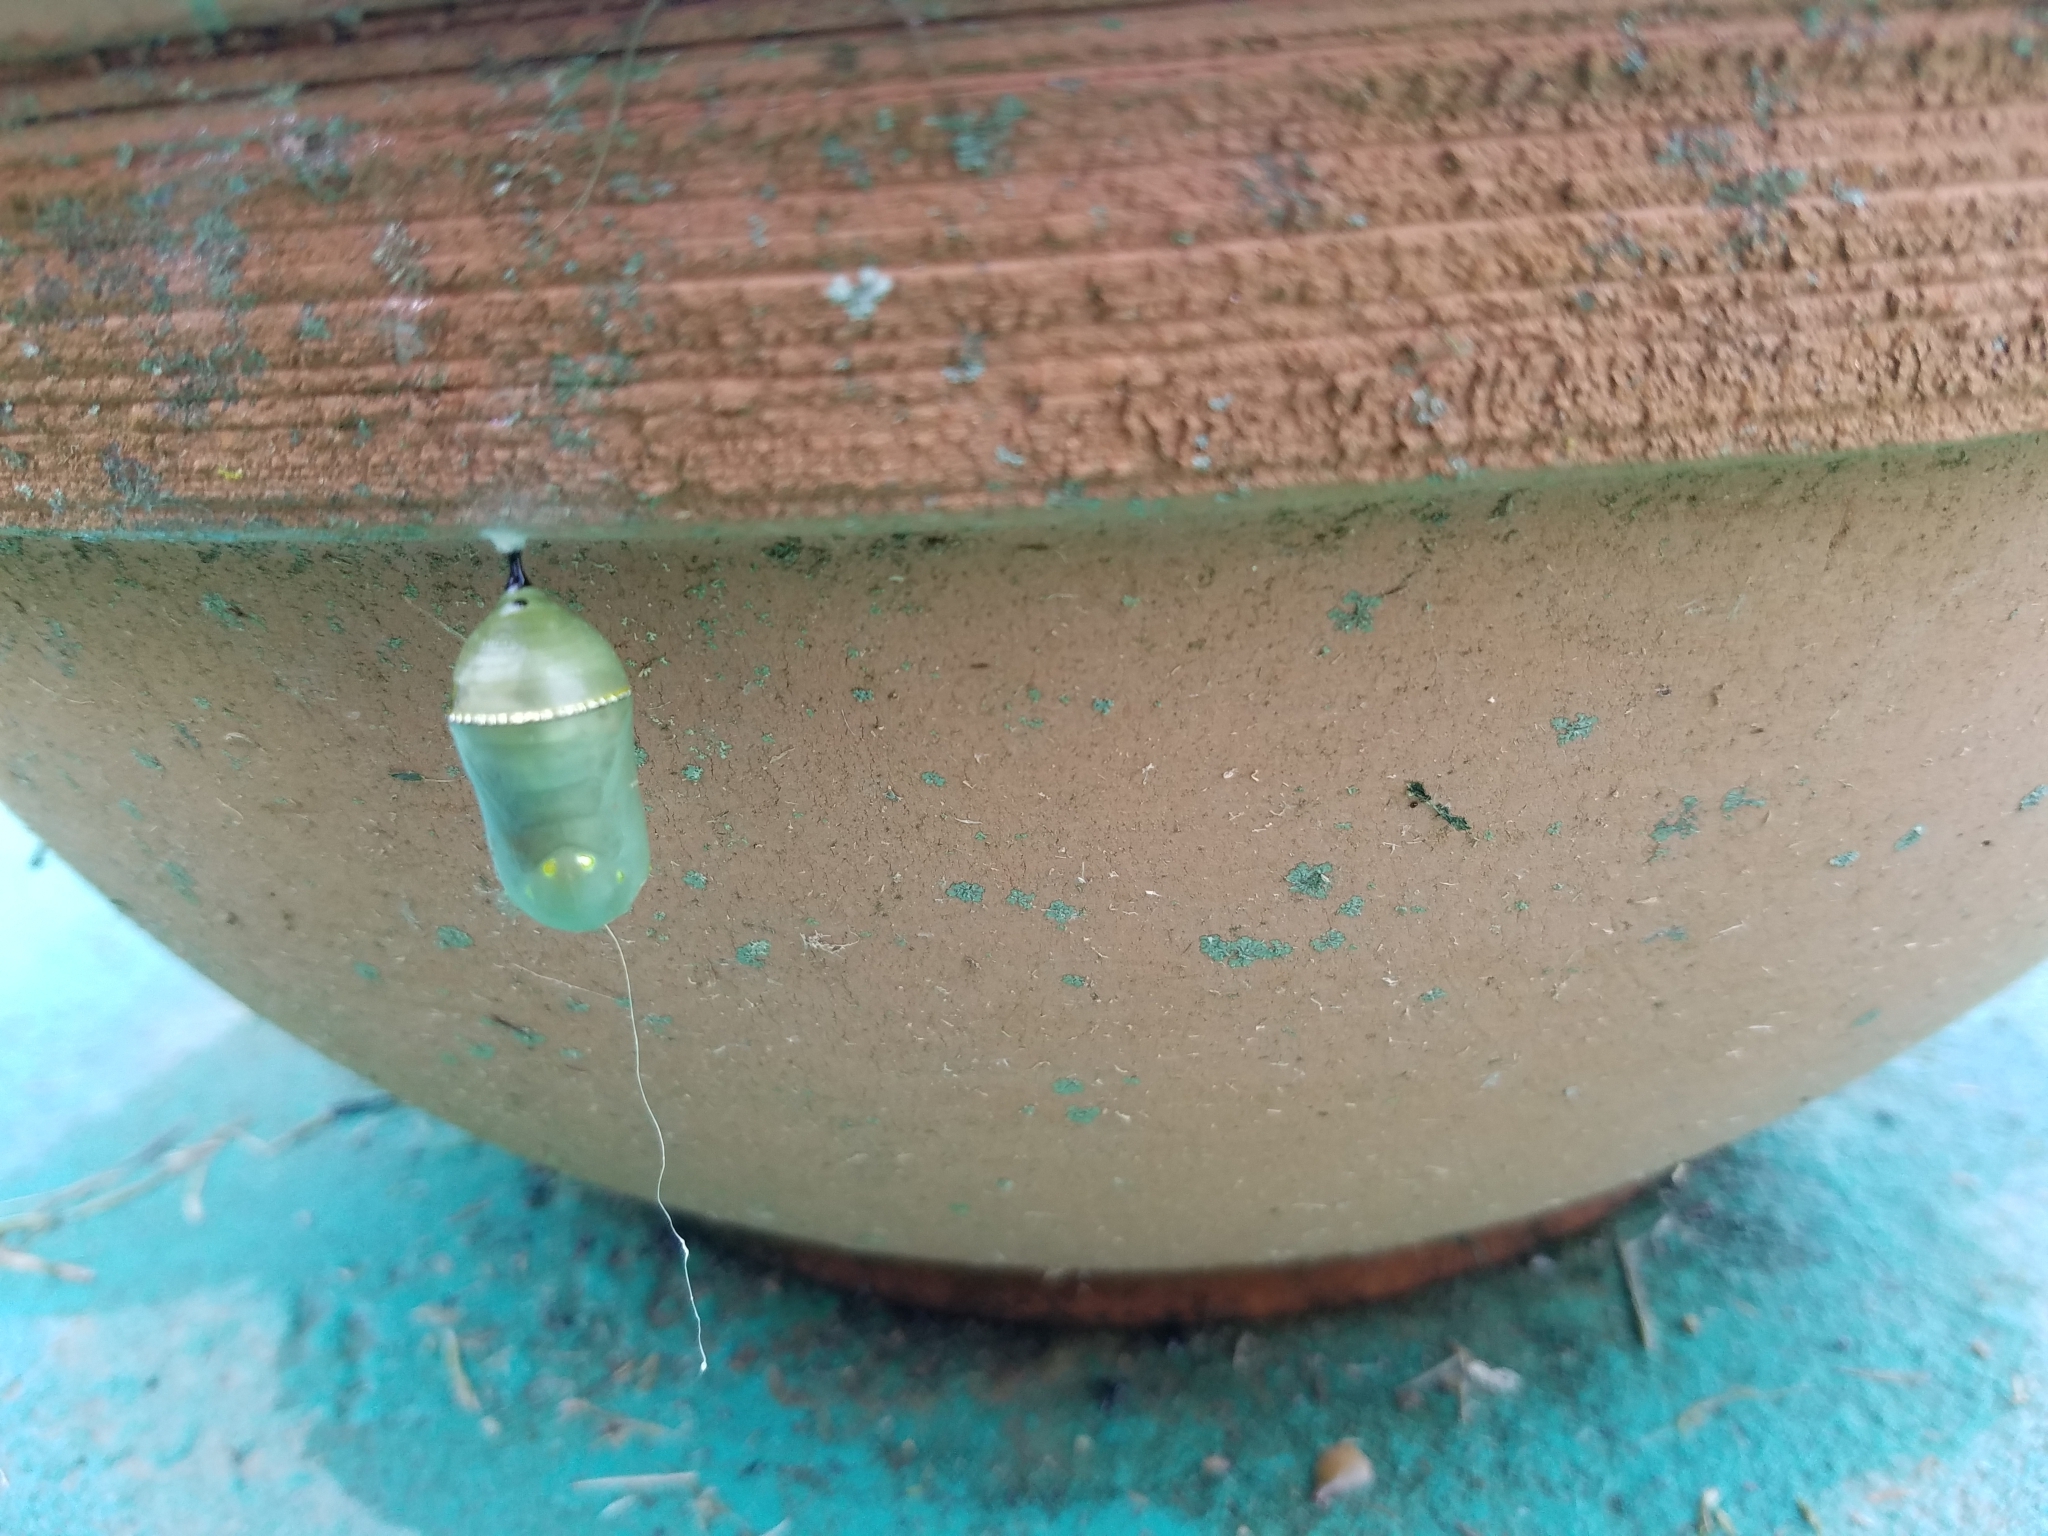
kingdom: Animalia
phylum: Arthropoda
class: Insecta
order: Lepidoptera
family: Nymphalidae
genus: Danaus
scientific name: Danaus plexippus
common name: Monarch
